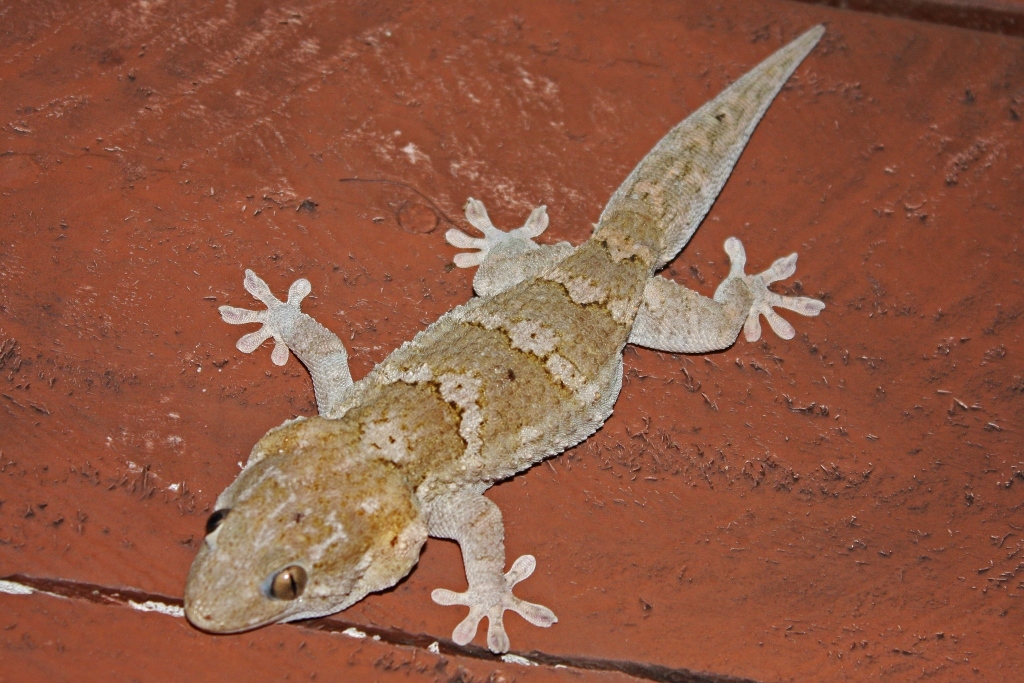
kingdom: Animalia
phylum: Chordata
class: Squamata
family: Phyllodactylidae
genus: Tarentola
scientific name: Tarentola senegambiae
